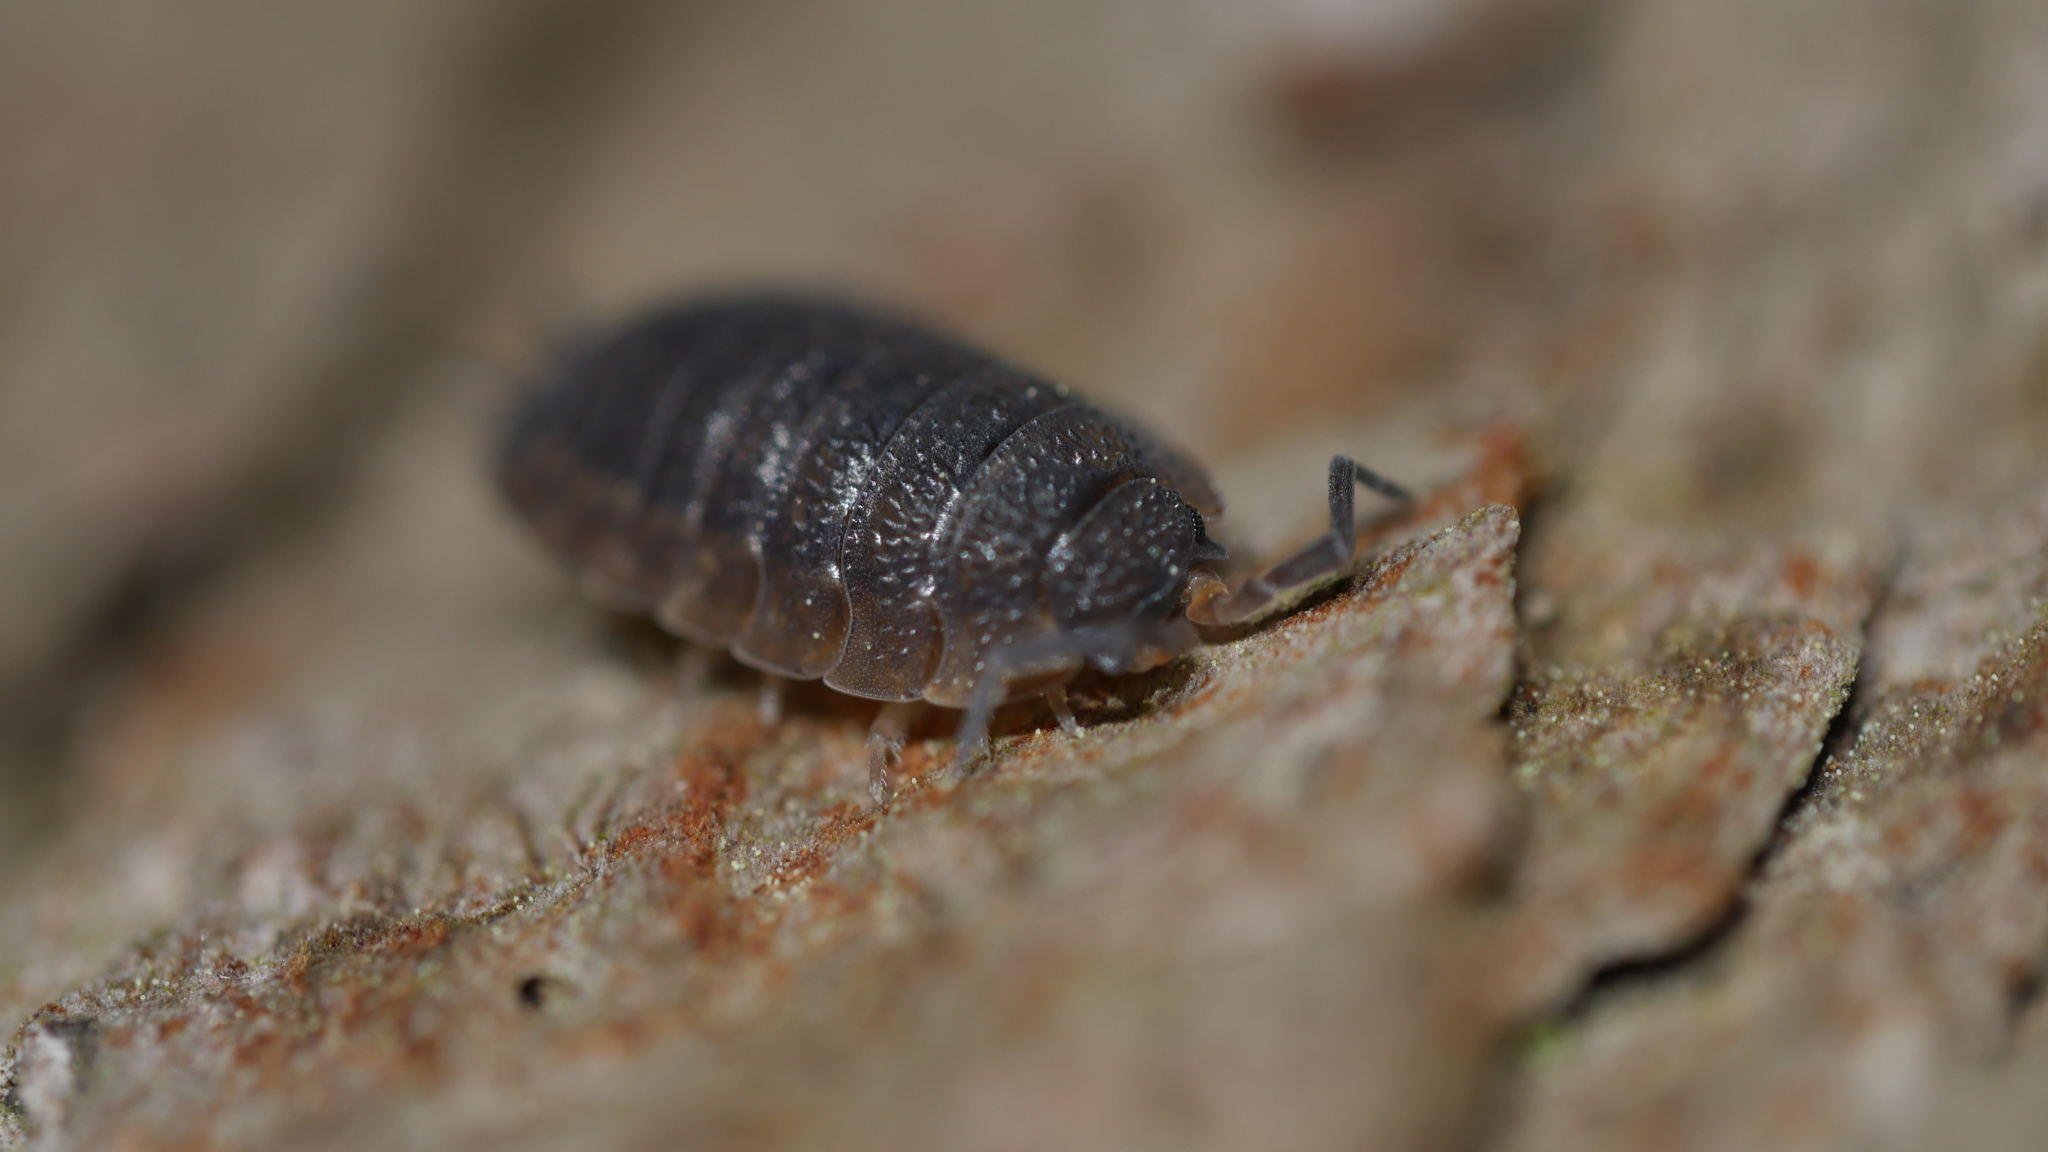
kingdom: Animalia
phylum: Arthropoda
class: Malacostraca
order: Isopoda
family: Porcellionidae
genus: Porcellio
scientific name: Porcellio scaber
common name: Common rough woodlouse
